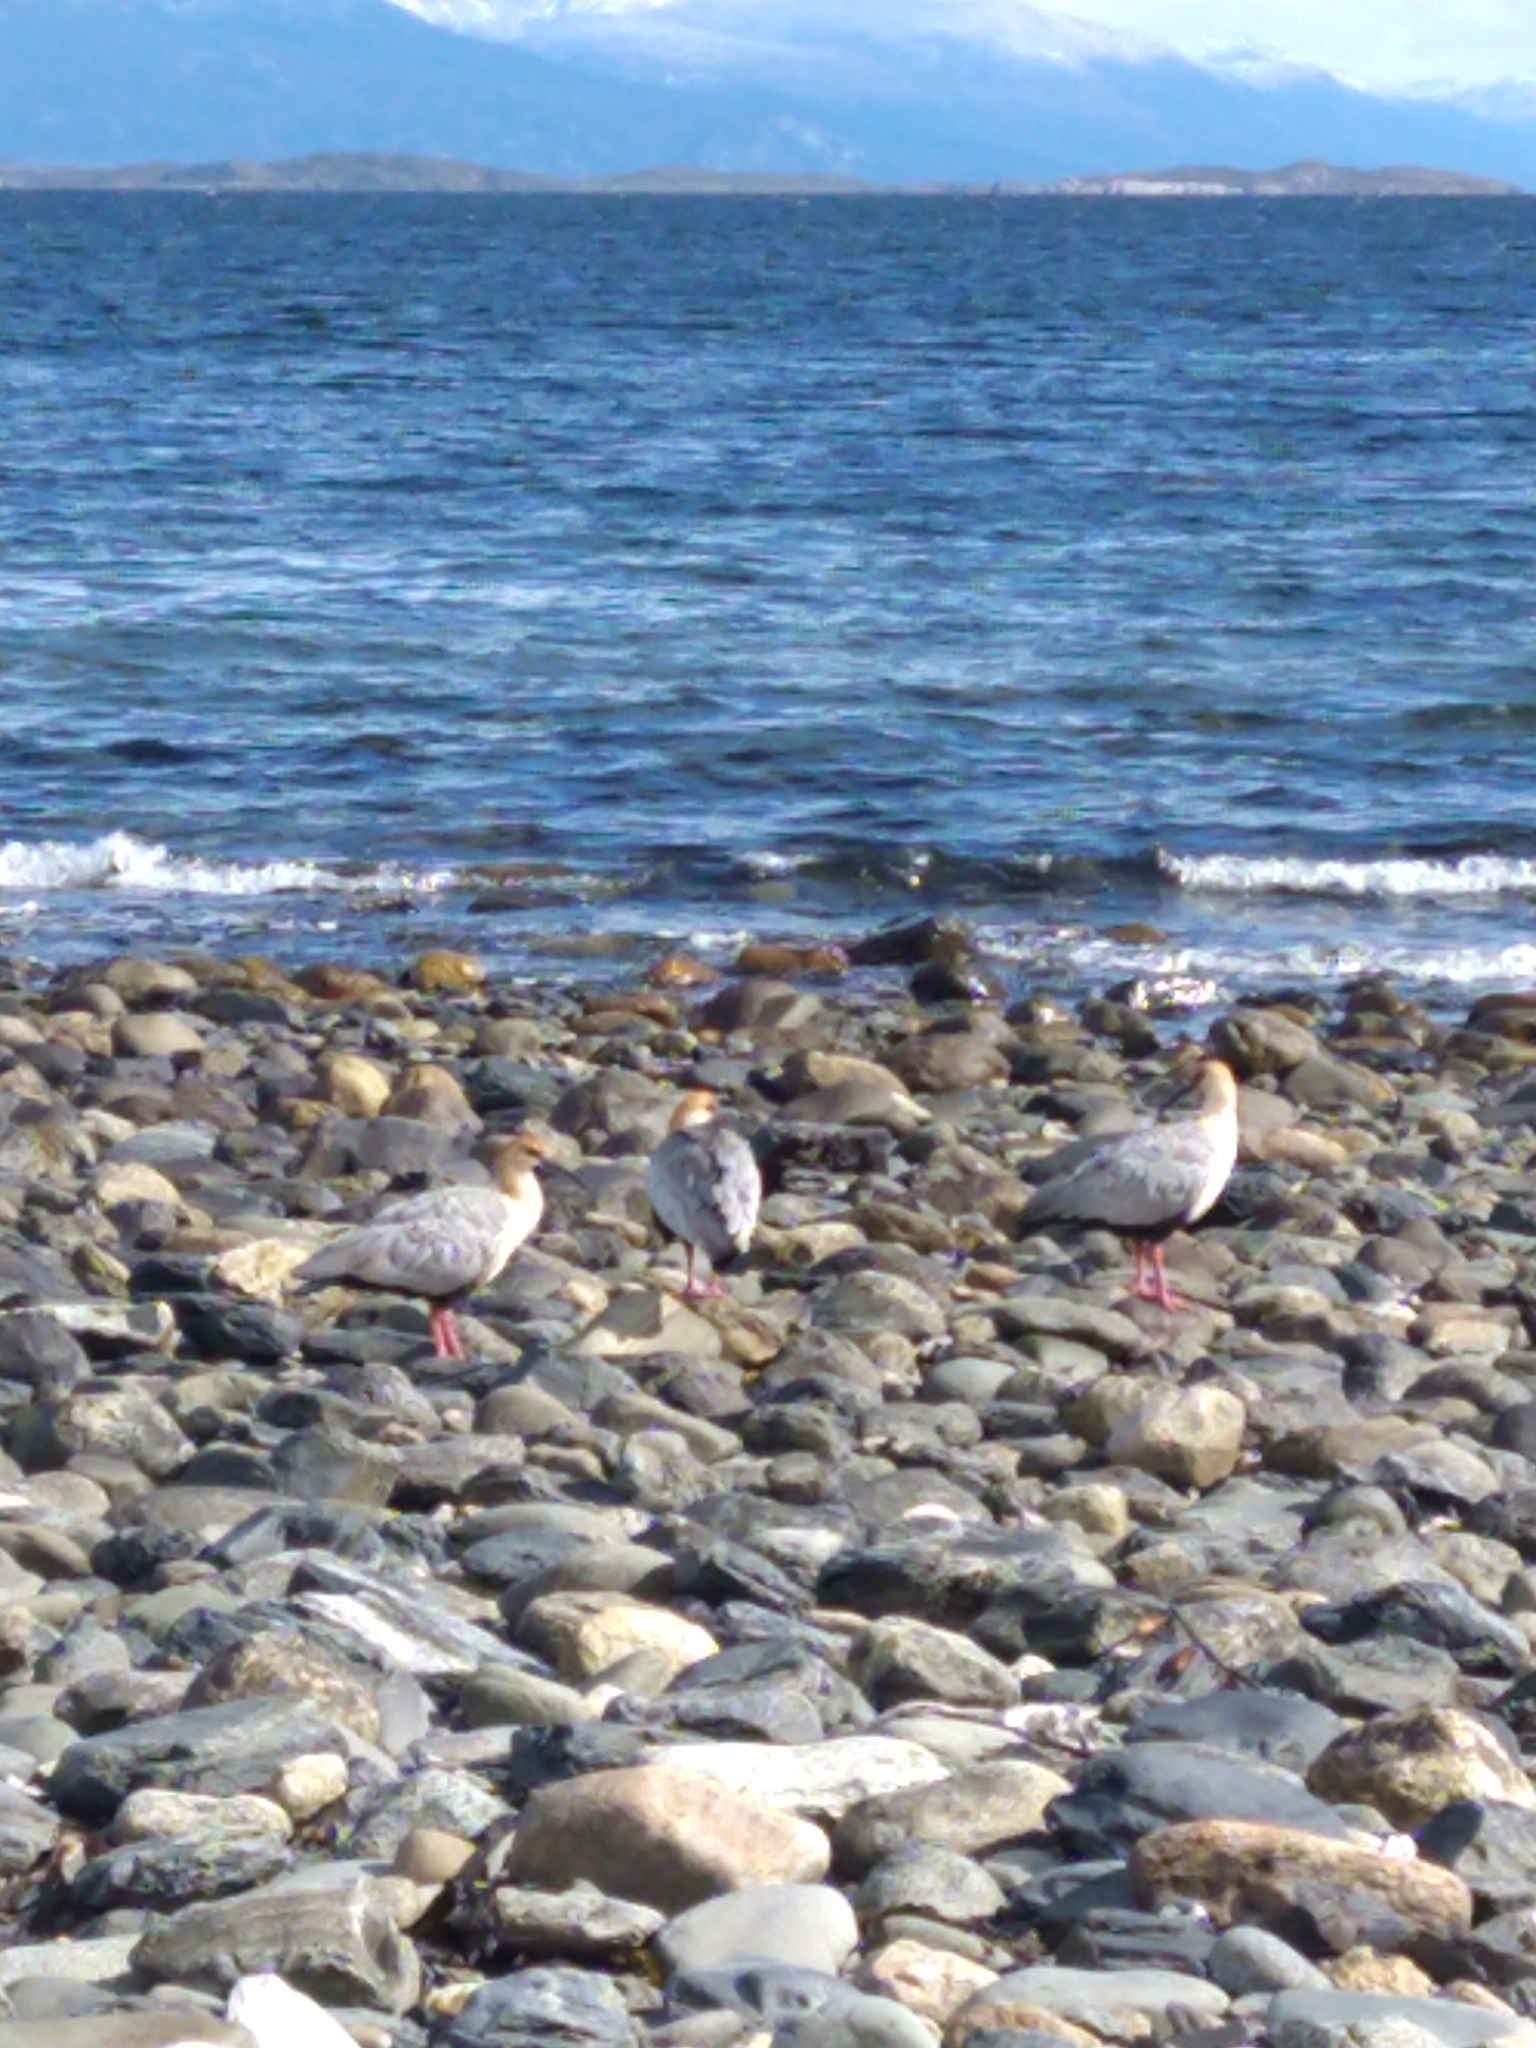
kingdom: Animalia
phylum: Chordata
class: Aves
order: Pelecaniformes
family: Threskiornithidae
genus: Theristicus
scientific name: Theristicus melanopis
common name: Black-faced ibis
